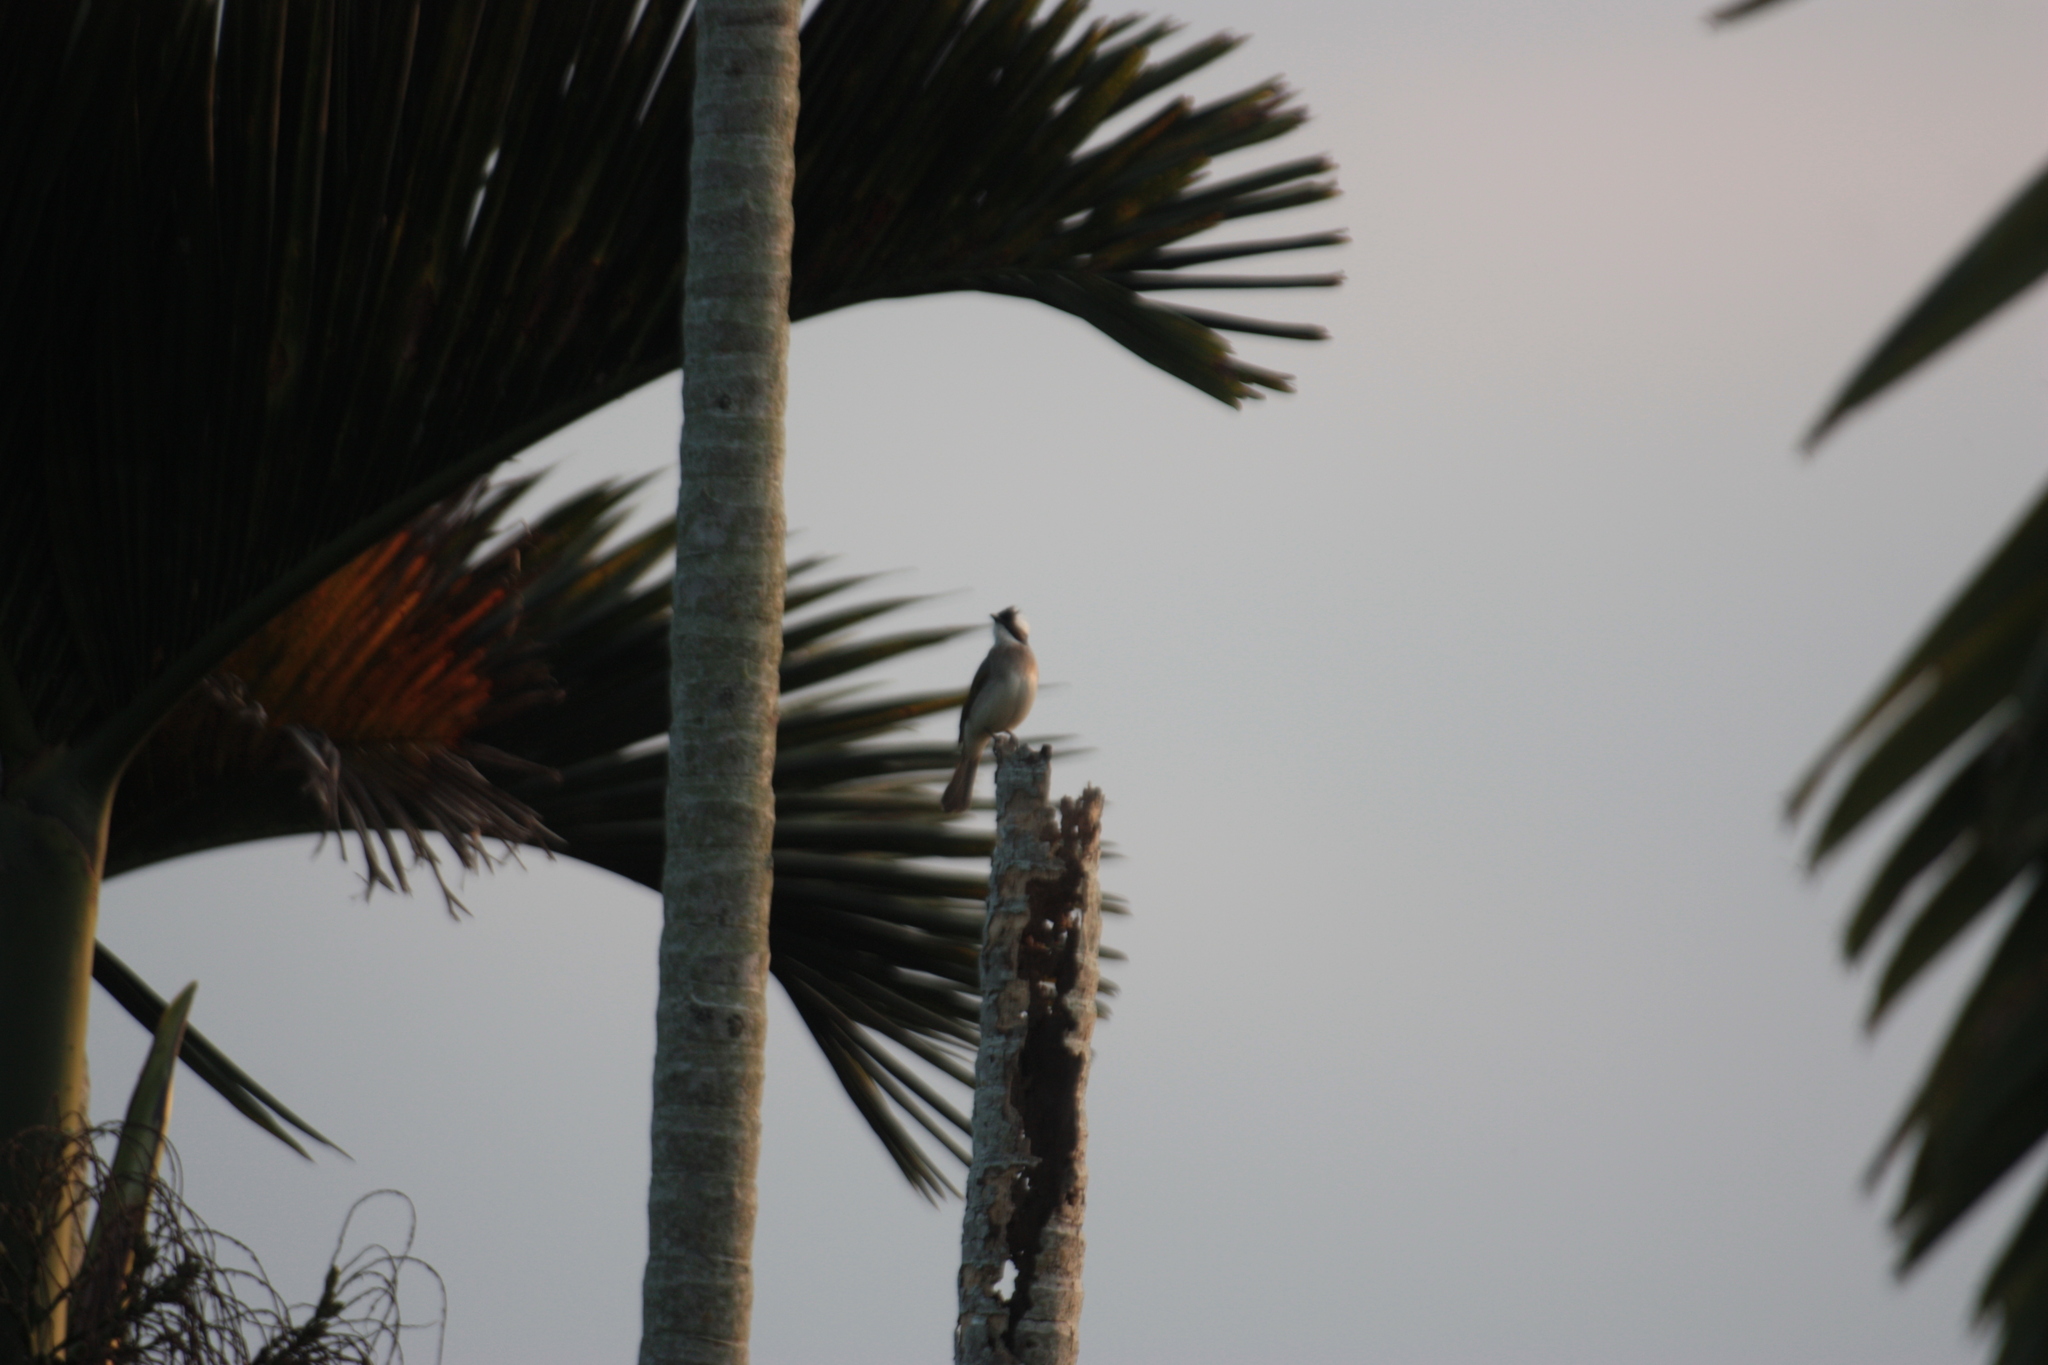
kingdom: Animalia
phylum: Chordata
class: Aves
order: Passeriformes
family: Pycnonotidae
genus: Pycnonotus
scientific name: Pycnonotus sinensis
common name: Light-vented bulbul
